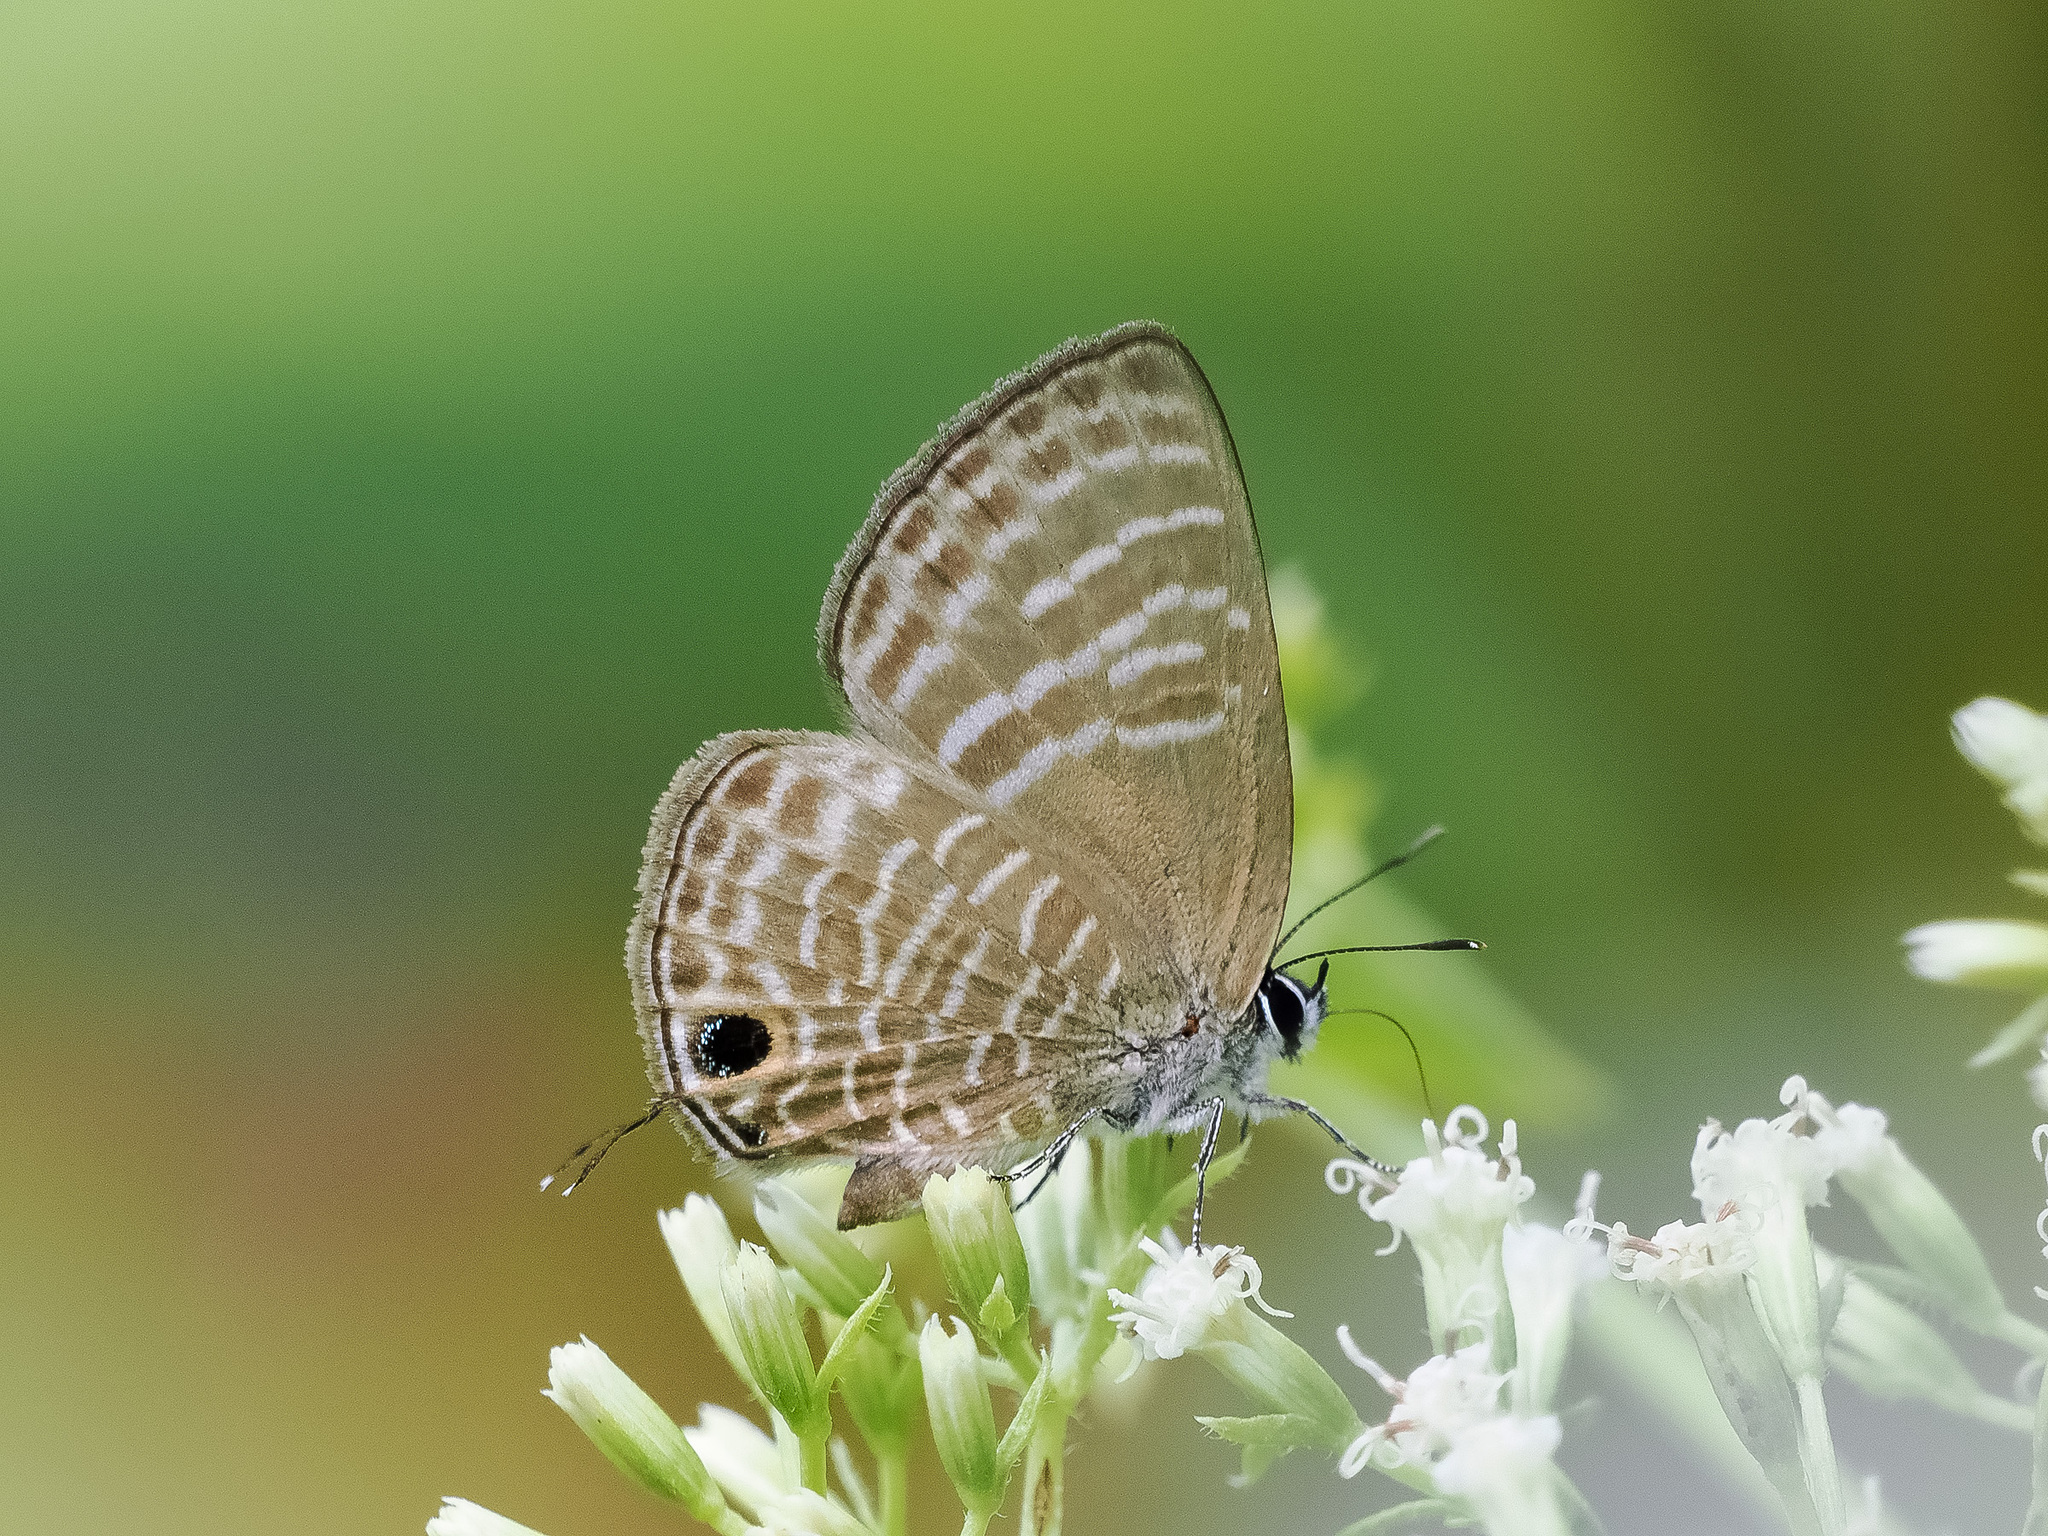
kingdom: Animalia
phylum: Arthropoda
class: Insecta
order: Lepidoptera
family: Lycaenidae
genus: Nacaduba
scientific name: Nacaduba pactolus
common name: Large fourline blue
